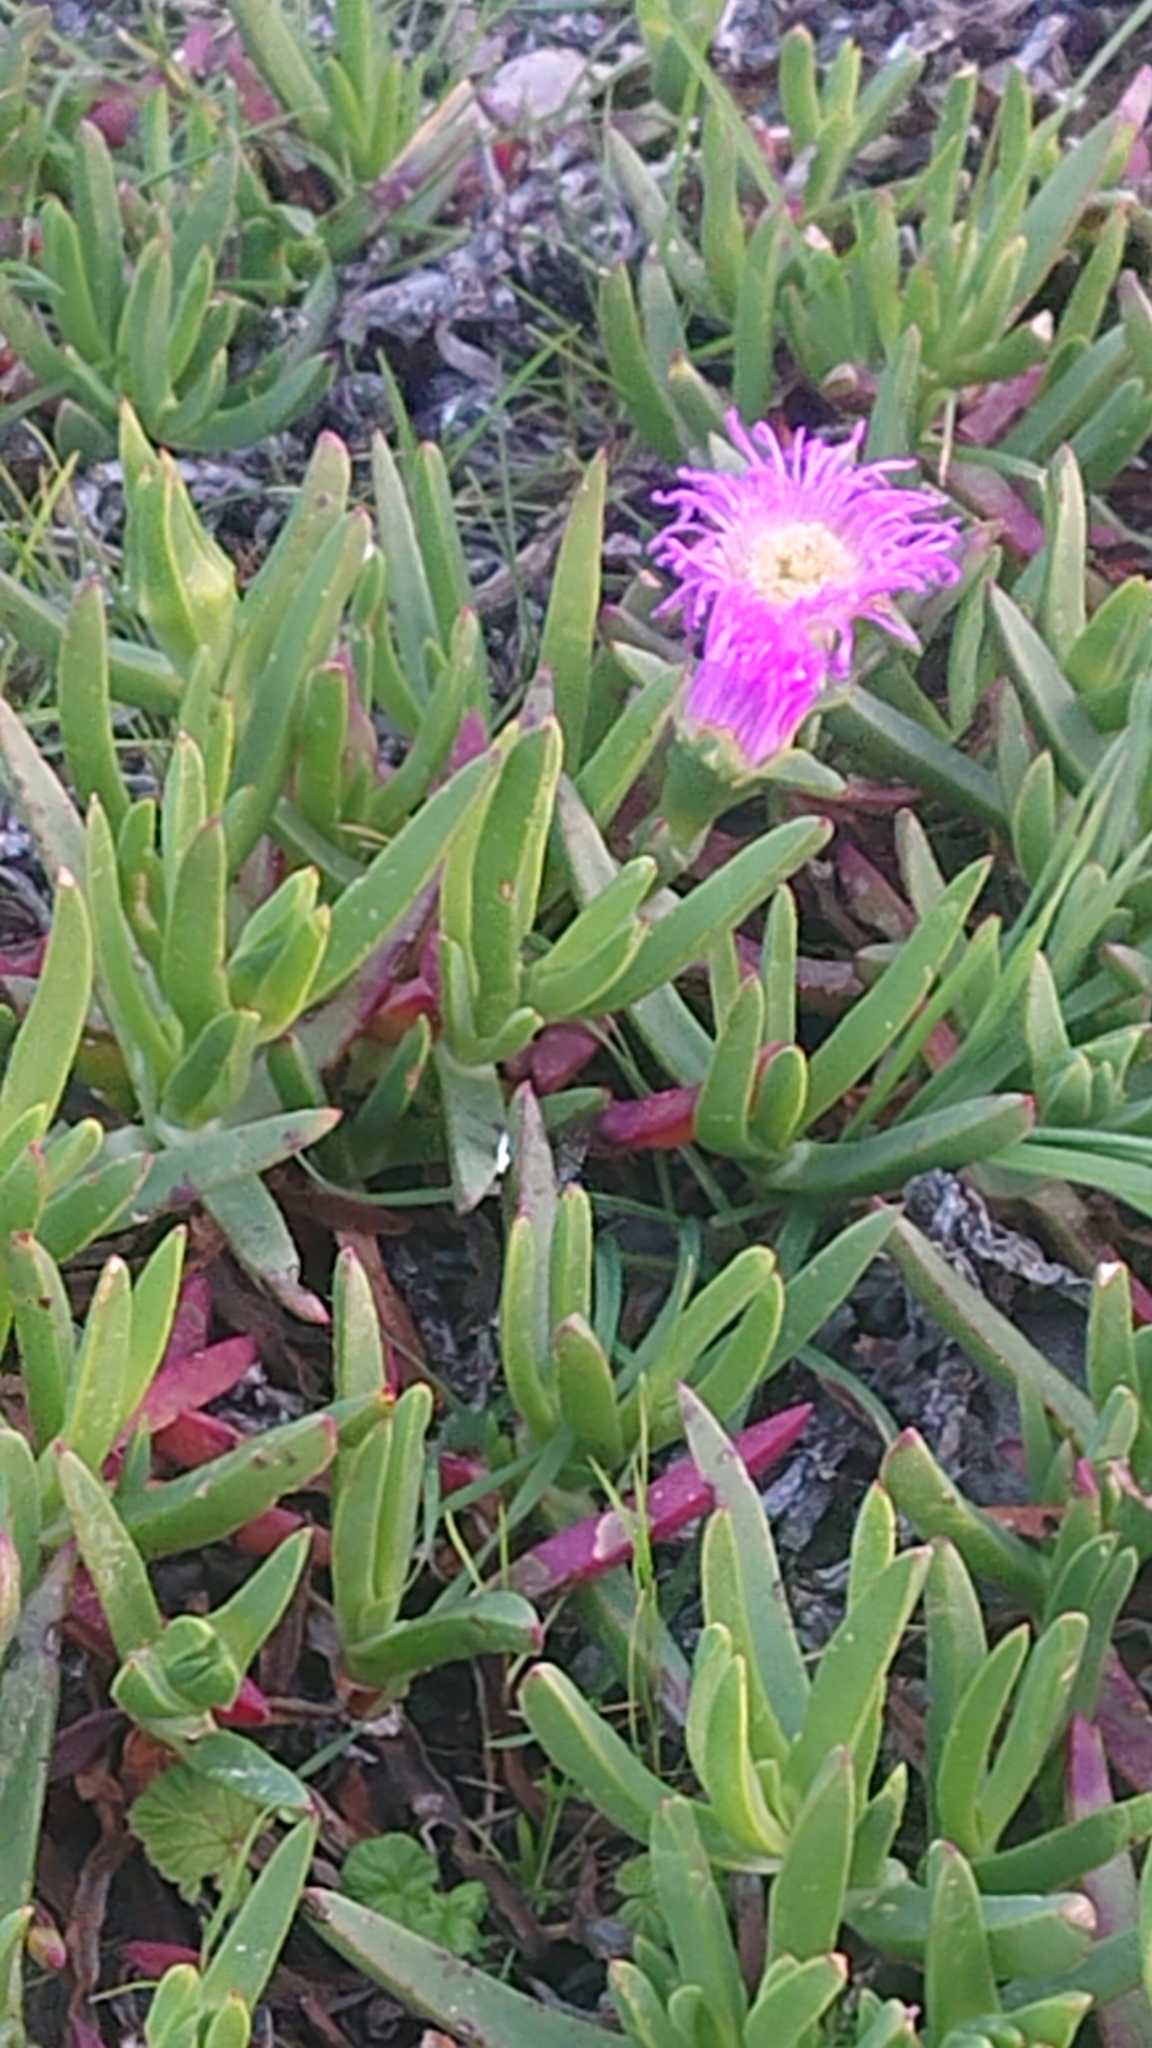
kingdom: Plantae
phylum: Tracheophyta
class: Magnoliopsida
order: Caryophyllales
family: Aizoaceae
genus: Carpobrotus
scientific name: Carpobrotus rossii
